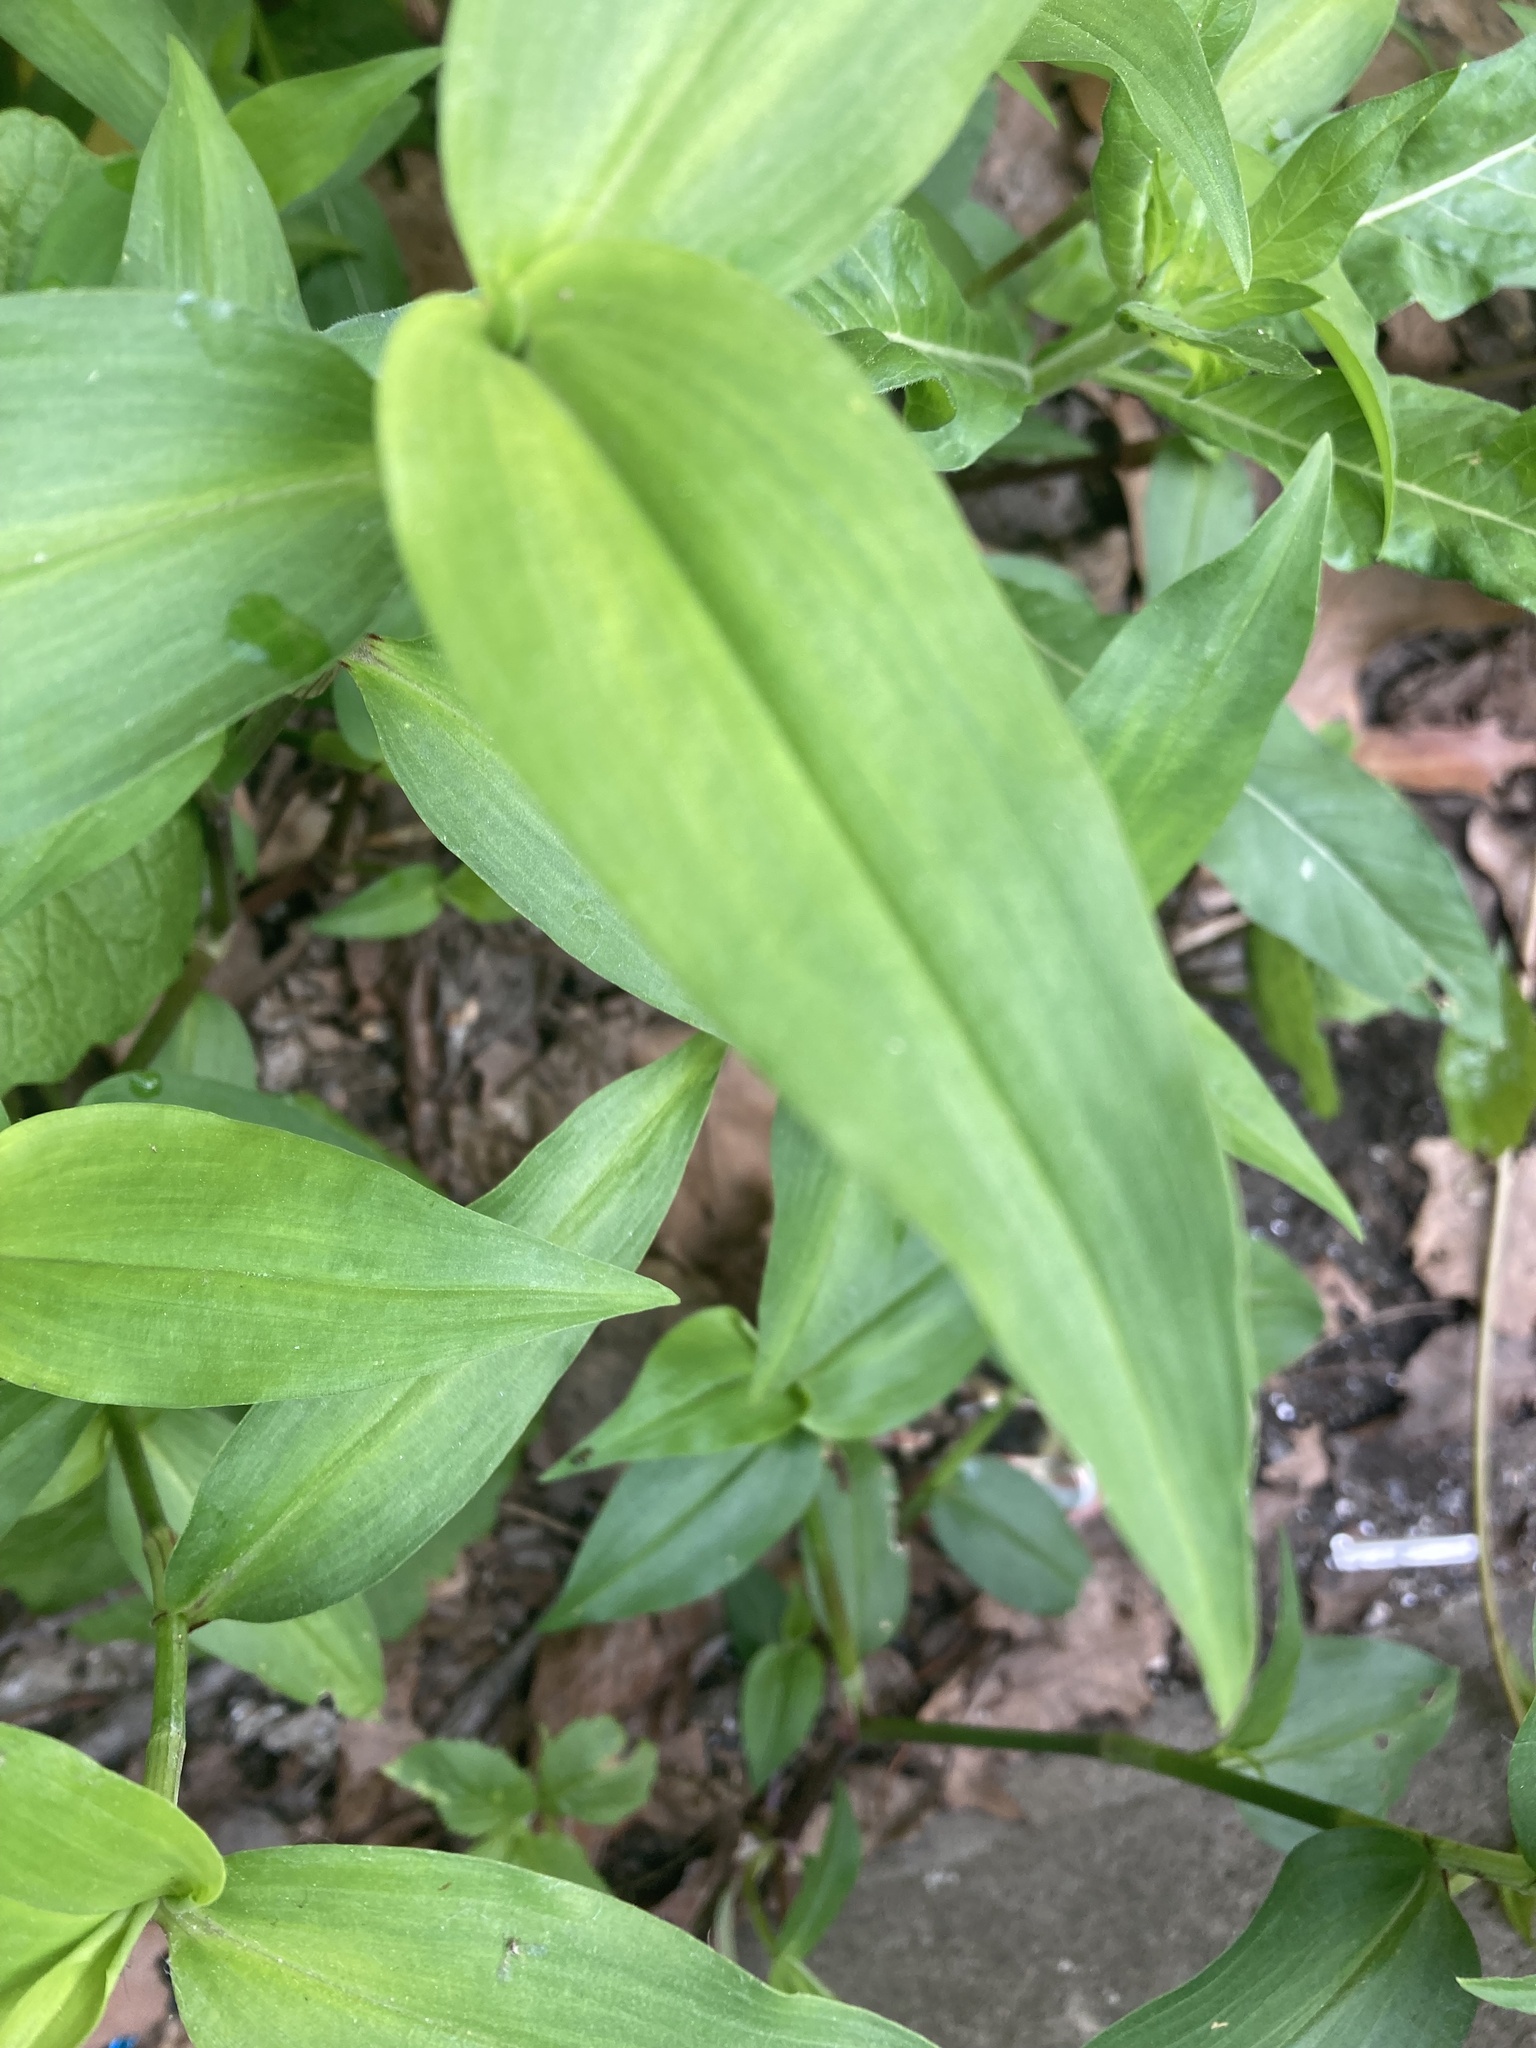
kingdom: Plantae
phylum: Tracheophyta
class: Liliopsida
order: Commelinales
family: Commelinaceae
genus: Commelina
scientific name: Commelina communis
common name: Asiatic dayflower
